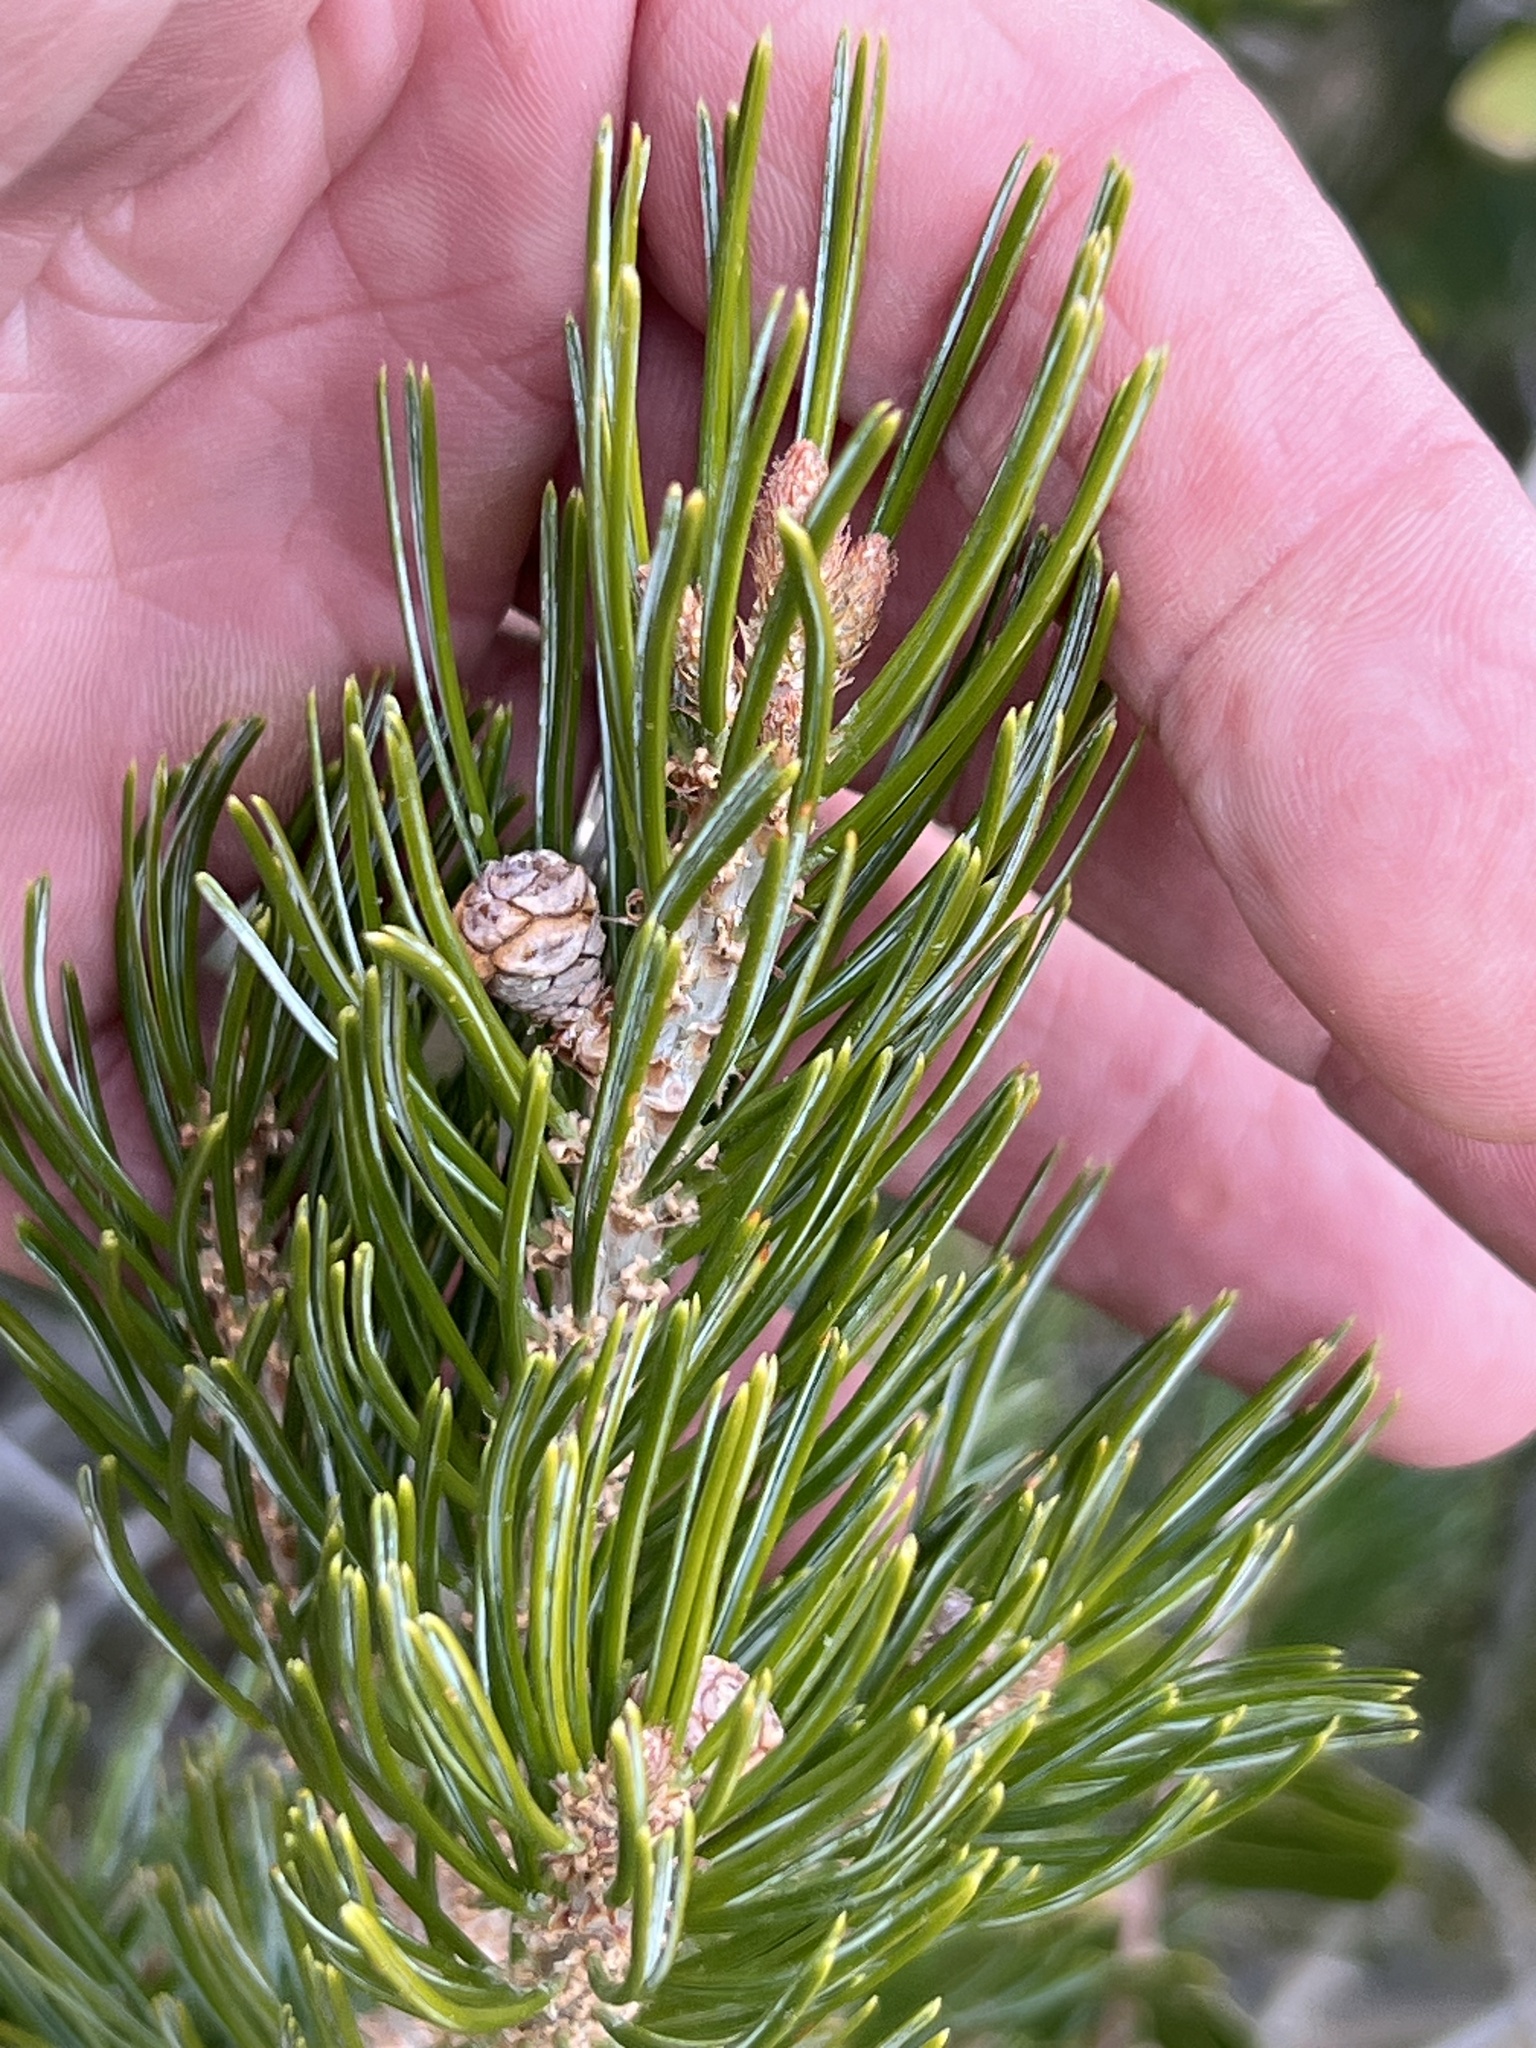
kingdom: Plantae
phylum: Tracheophyta
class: Pinopsida
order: Pinales
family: Pinaceae
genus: Pinus
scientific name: Pinus discolor
